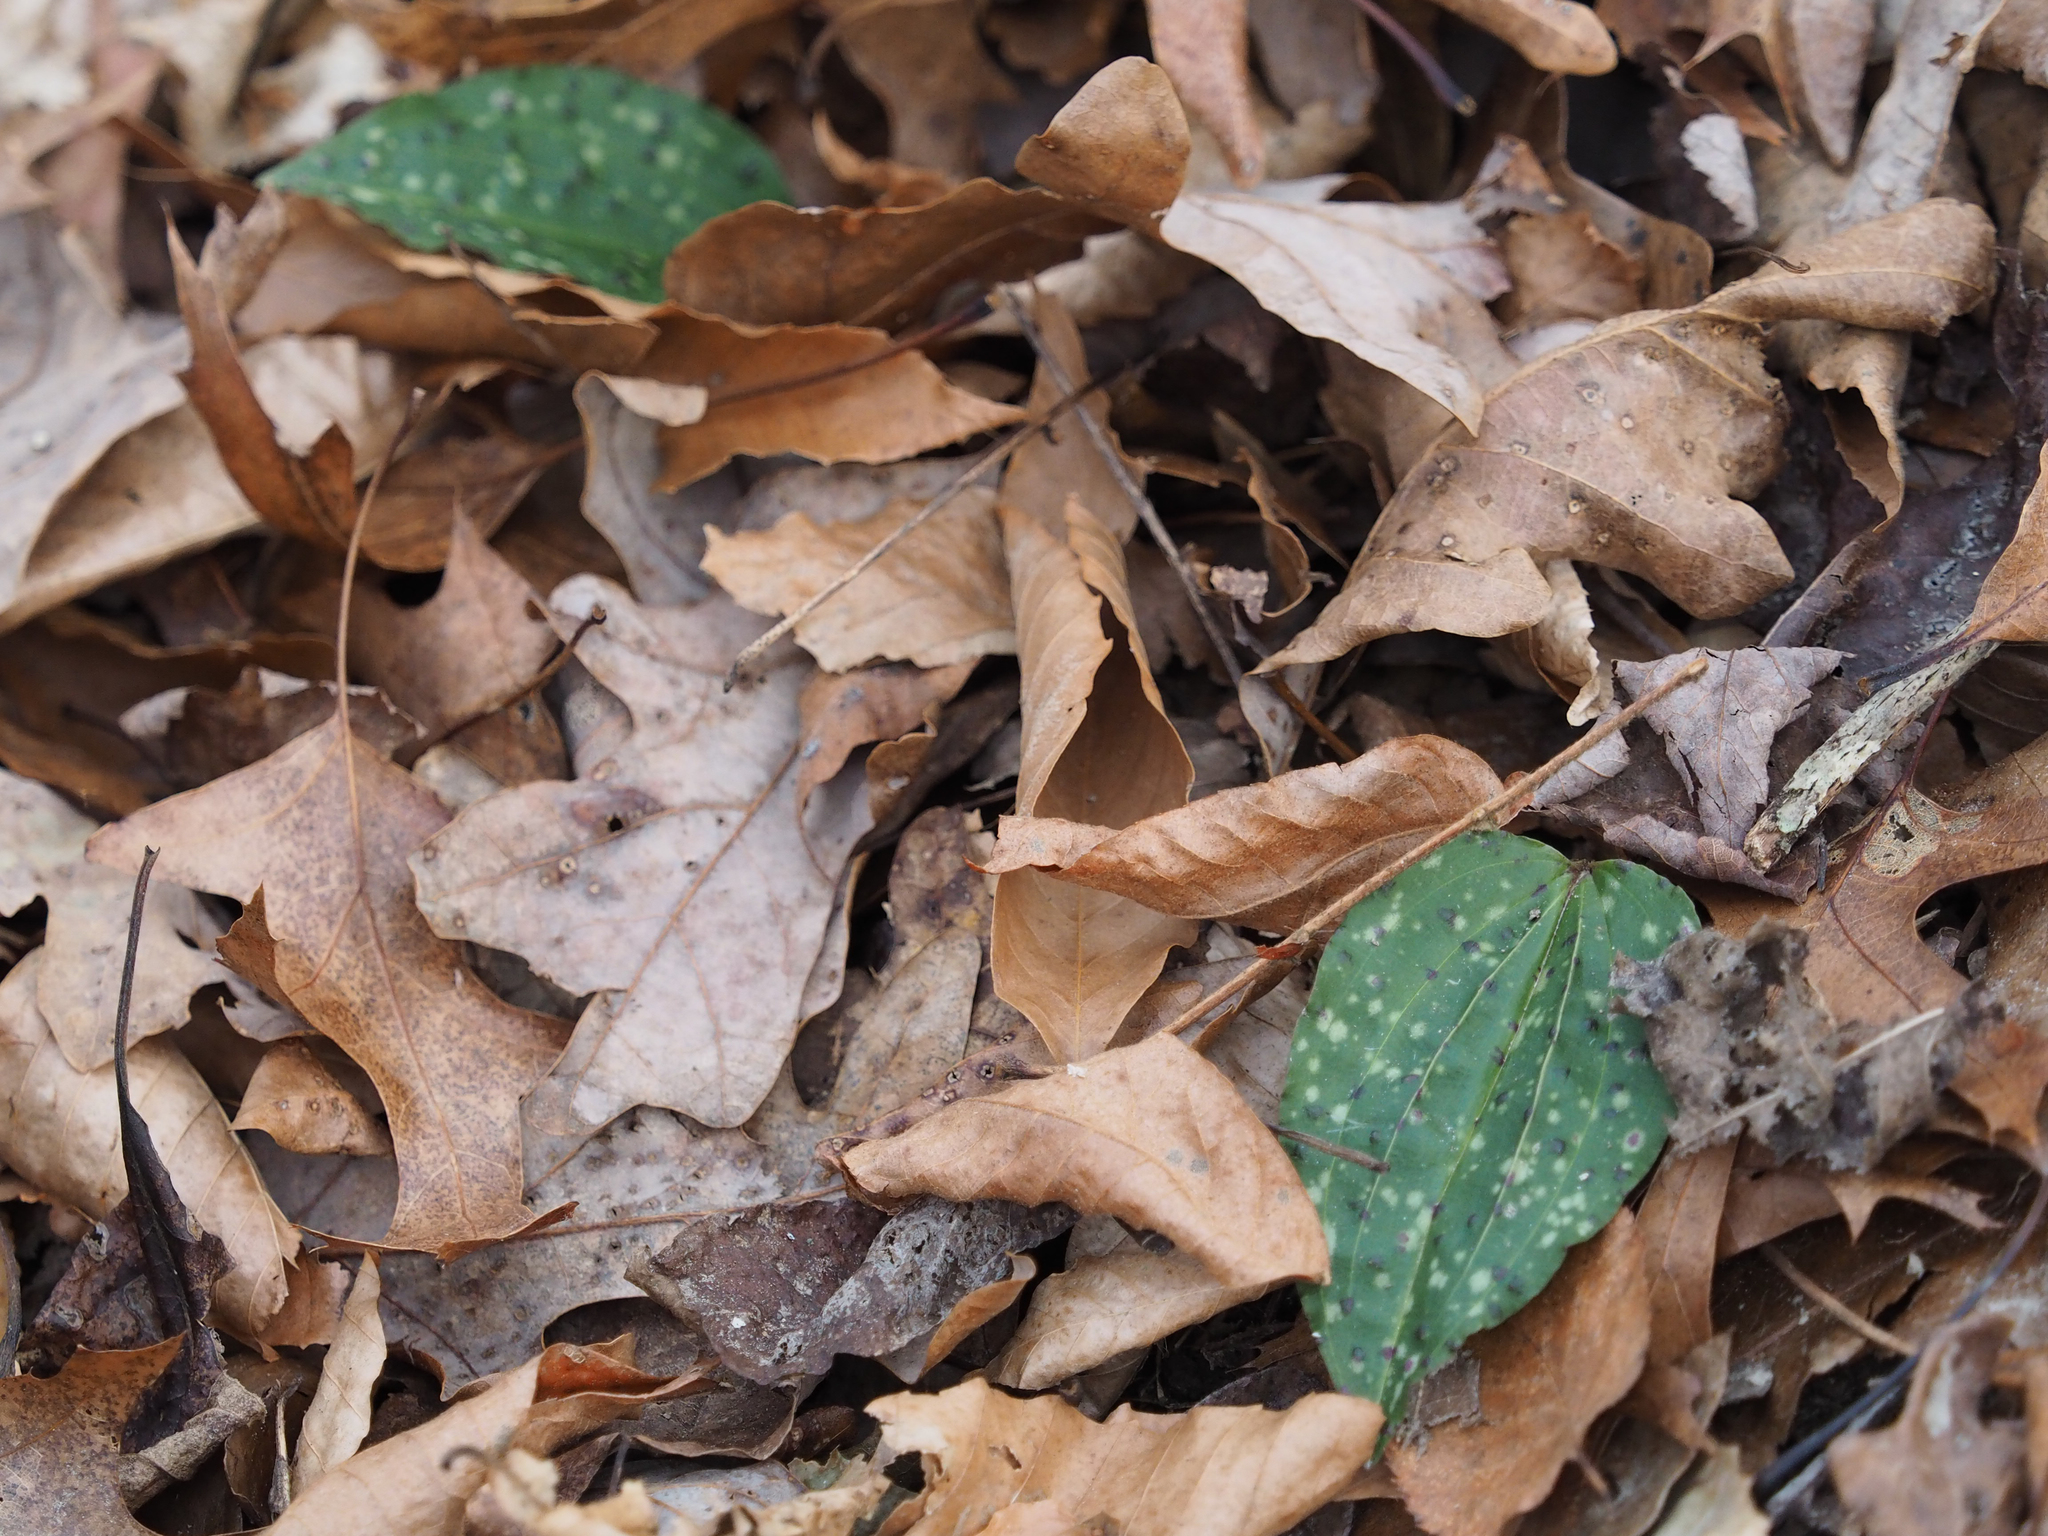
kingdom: Plantae
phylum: Tracheophyta
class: Liliopsida
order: Asparagales
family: Orchidaceae
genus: Tipularia
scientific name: Tipularia discolor
